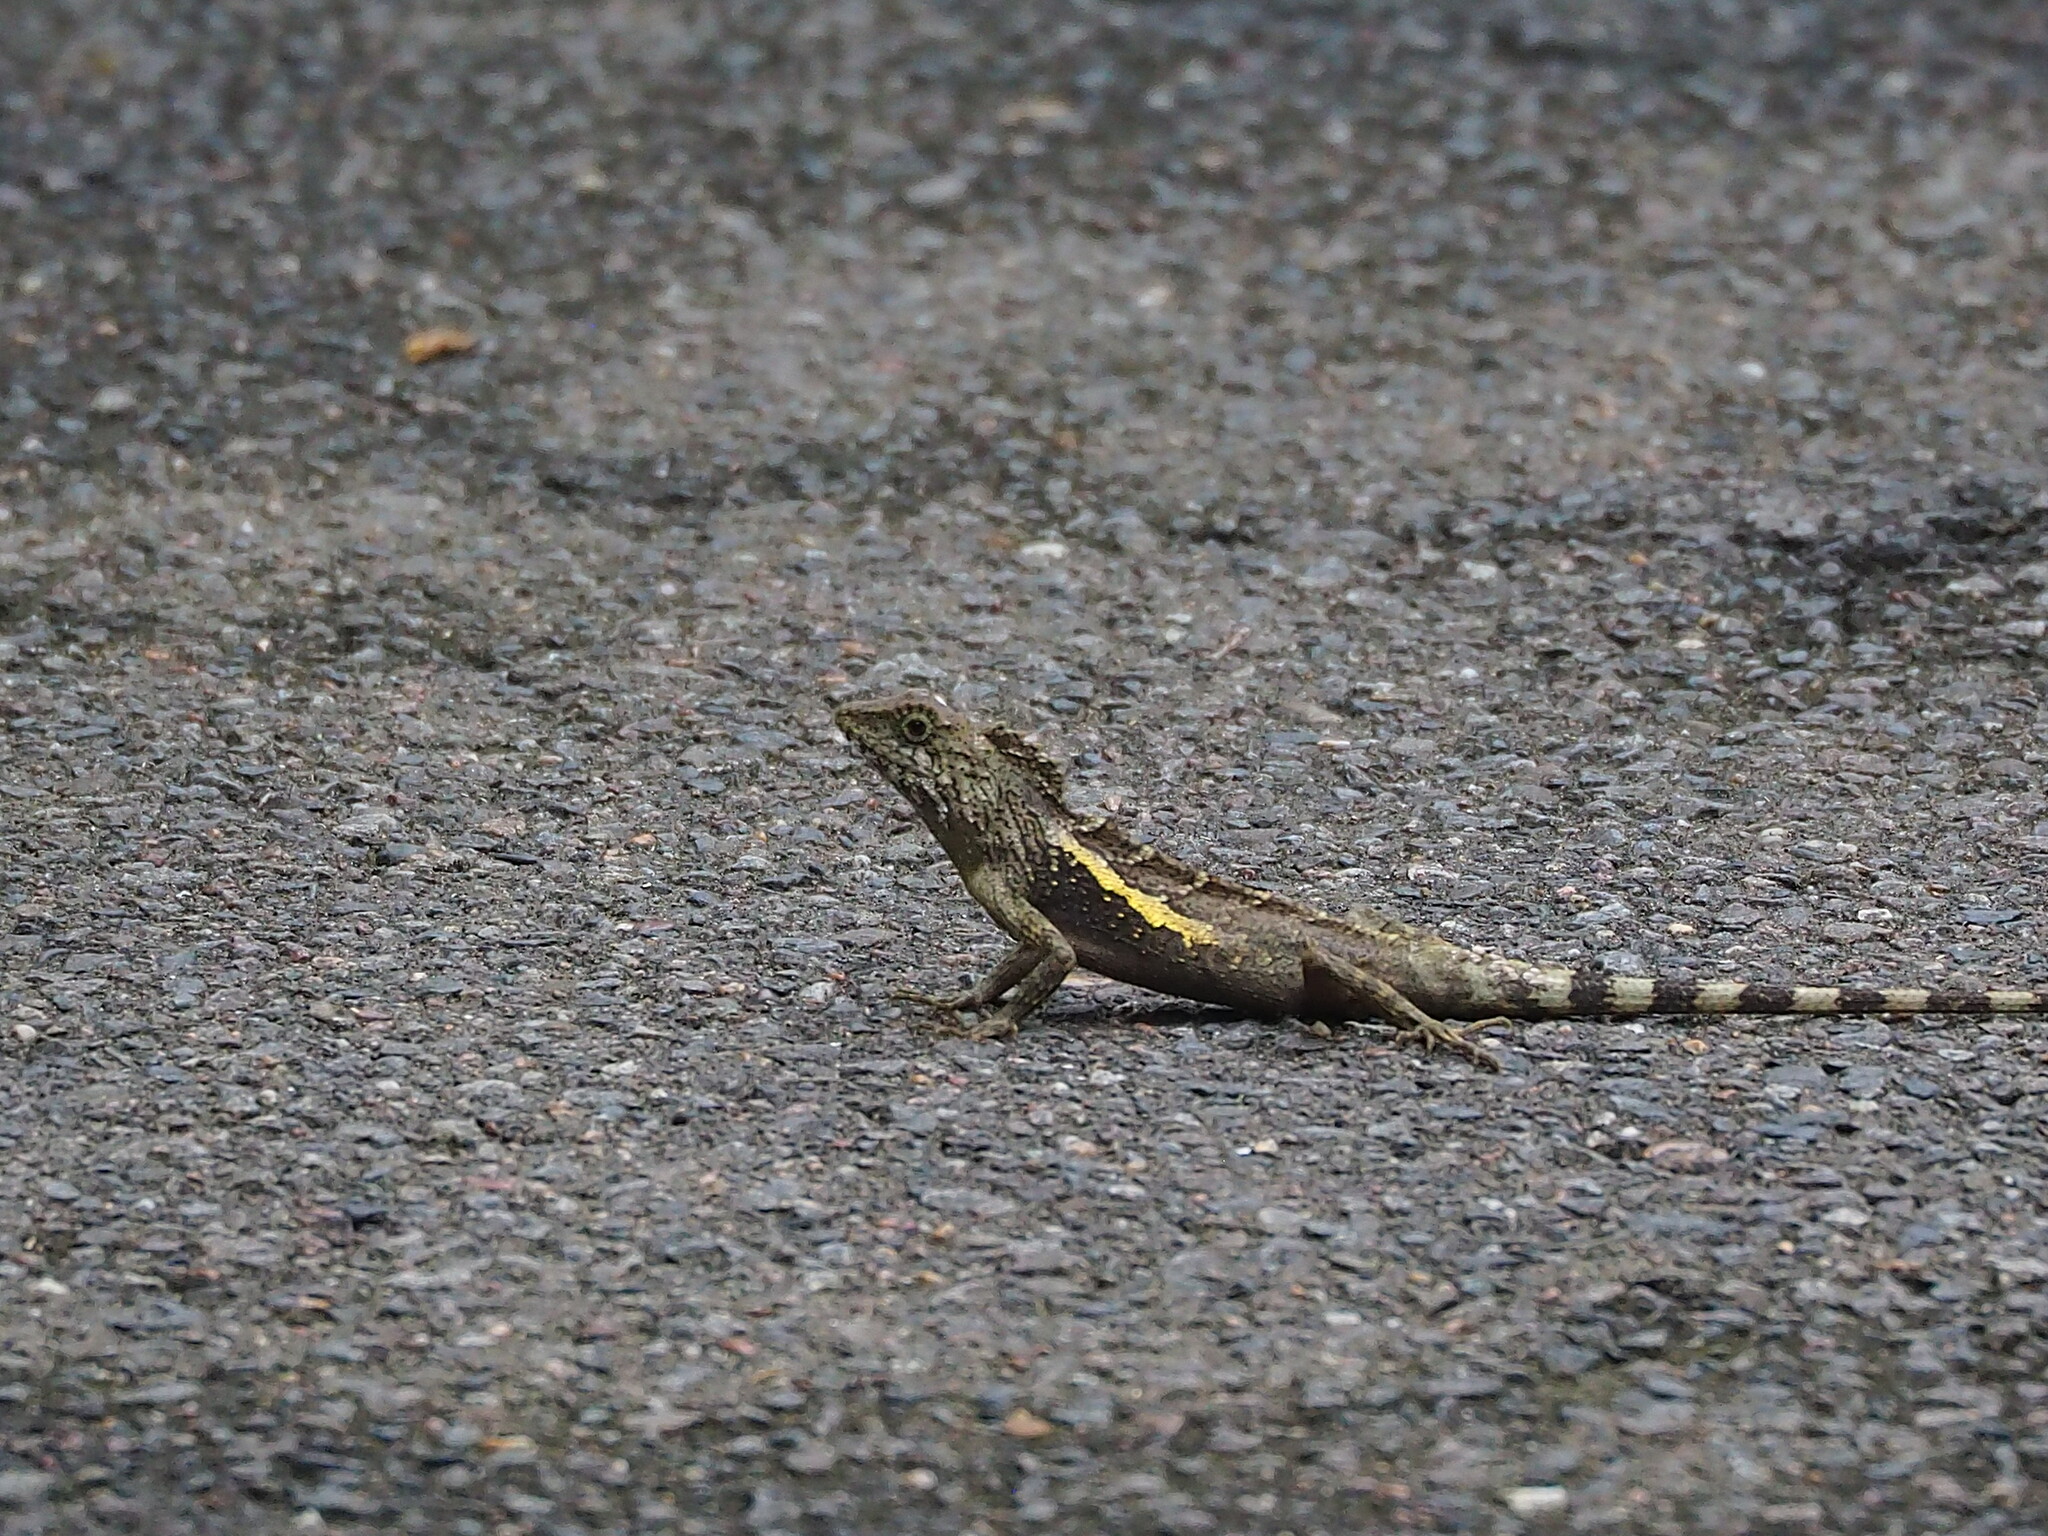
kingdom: Animalia
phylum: Chordata
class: Squamata
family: Agamidae
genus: Diploderma
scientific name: Diploderma swinhonis
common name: Taiwan japalure
